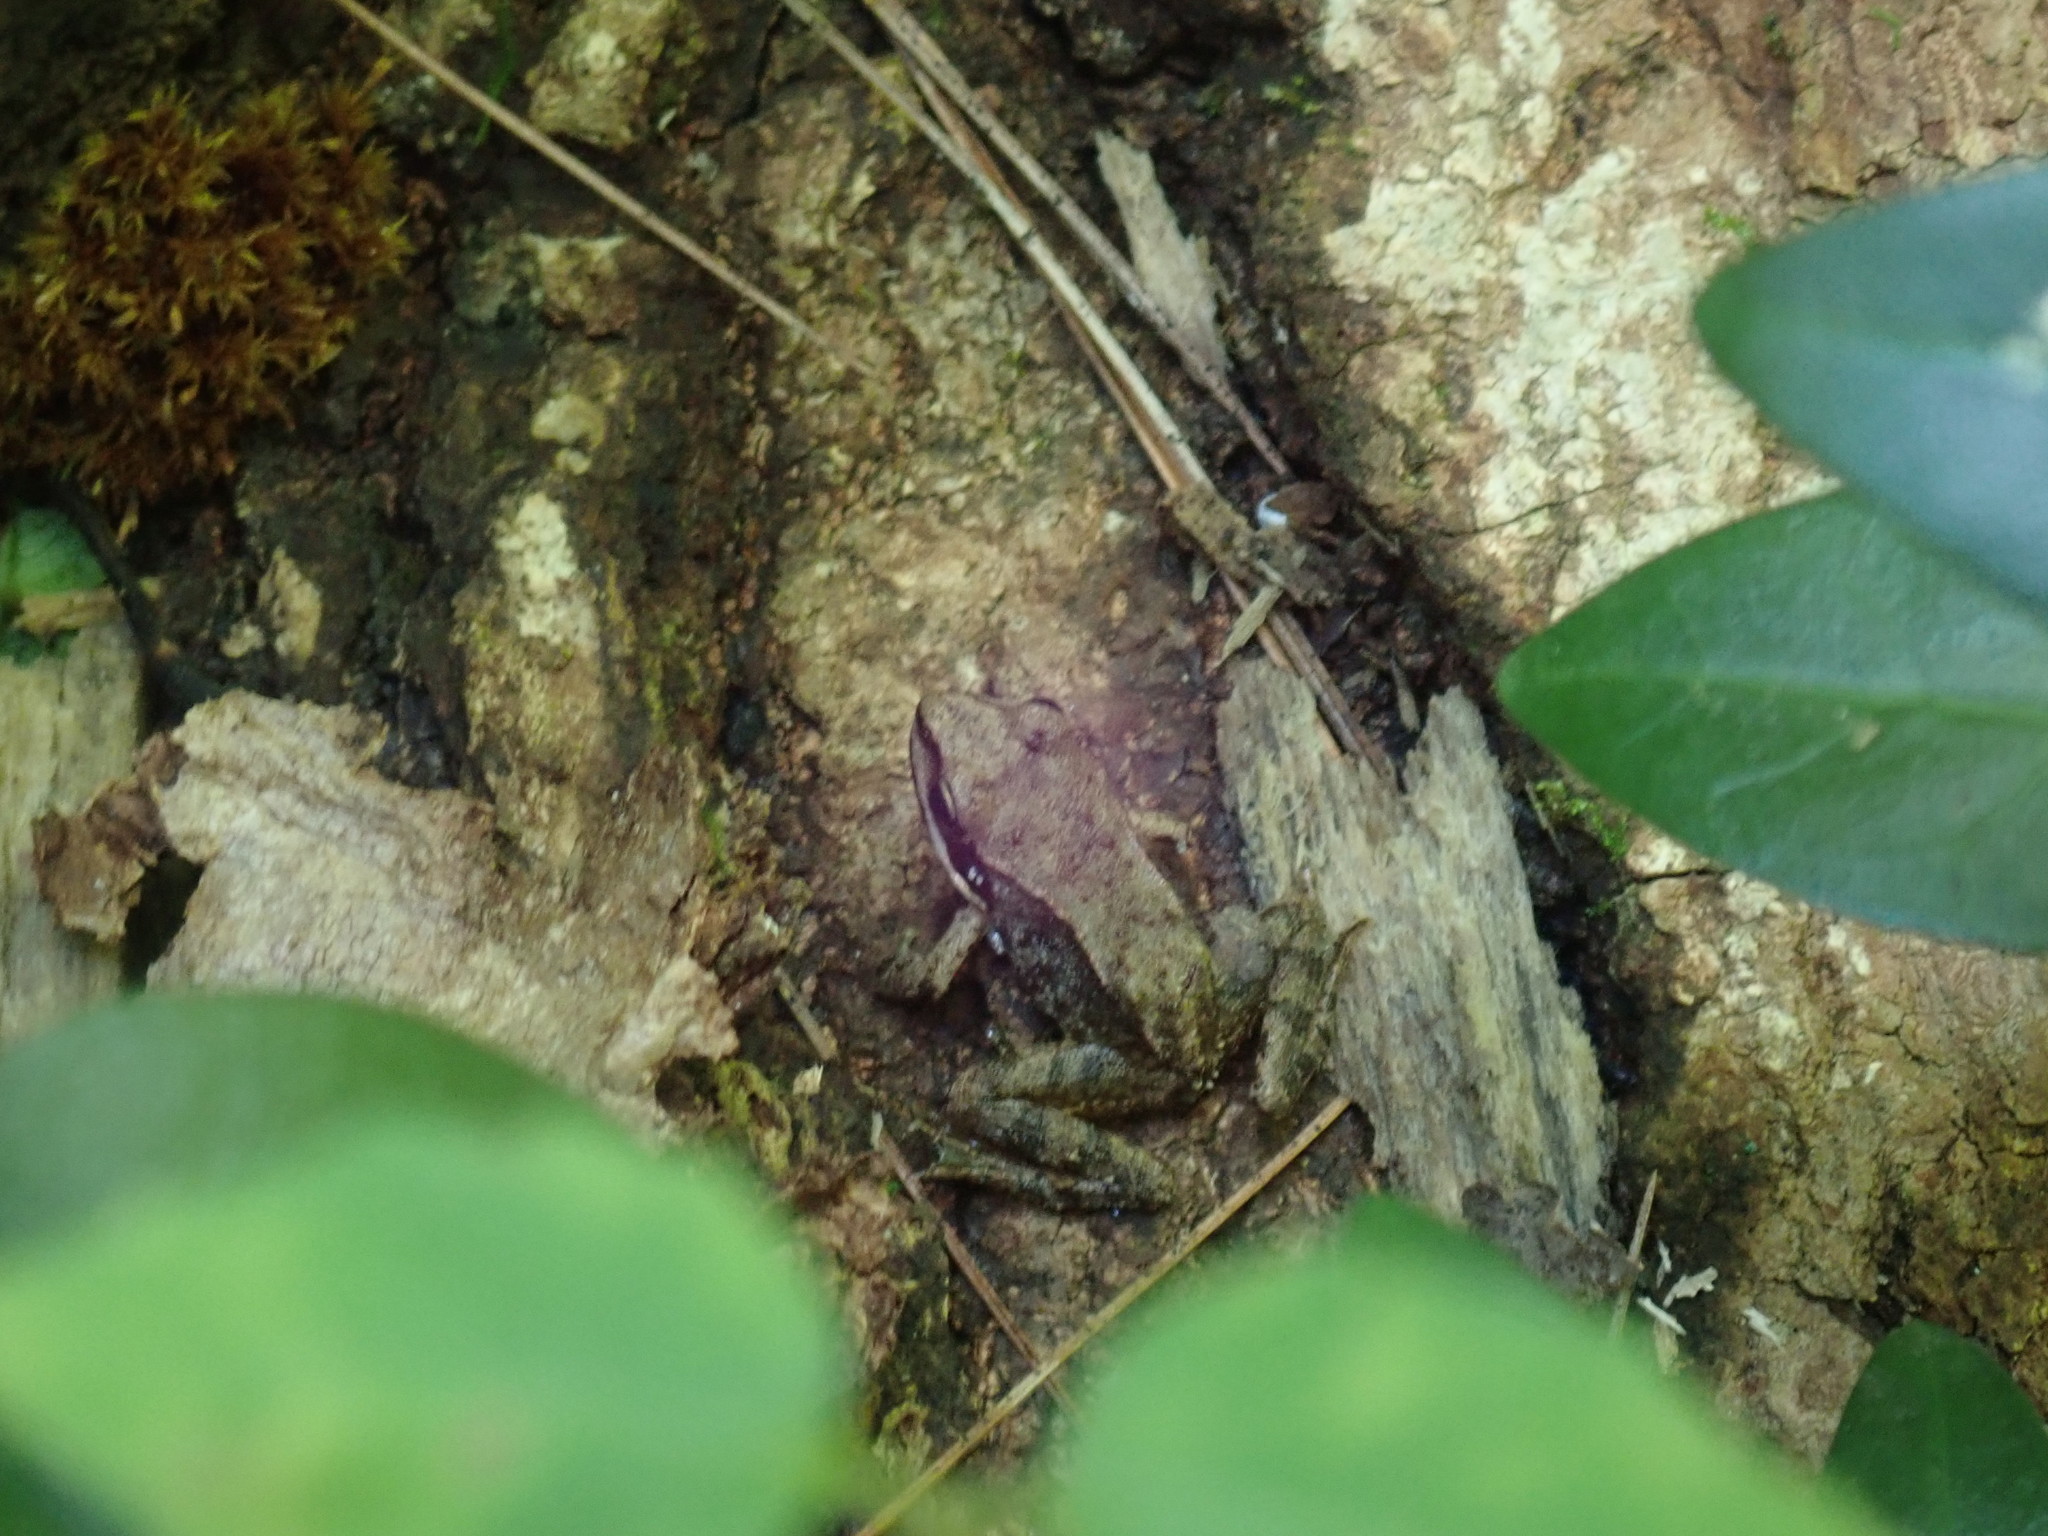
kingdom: Animalia
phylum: Chordata
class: Amphibia
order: Anura
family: Ranidae
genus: Lithobates
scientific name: Lithobates sylvaticus
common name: Wood frog
